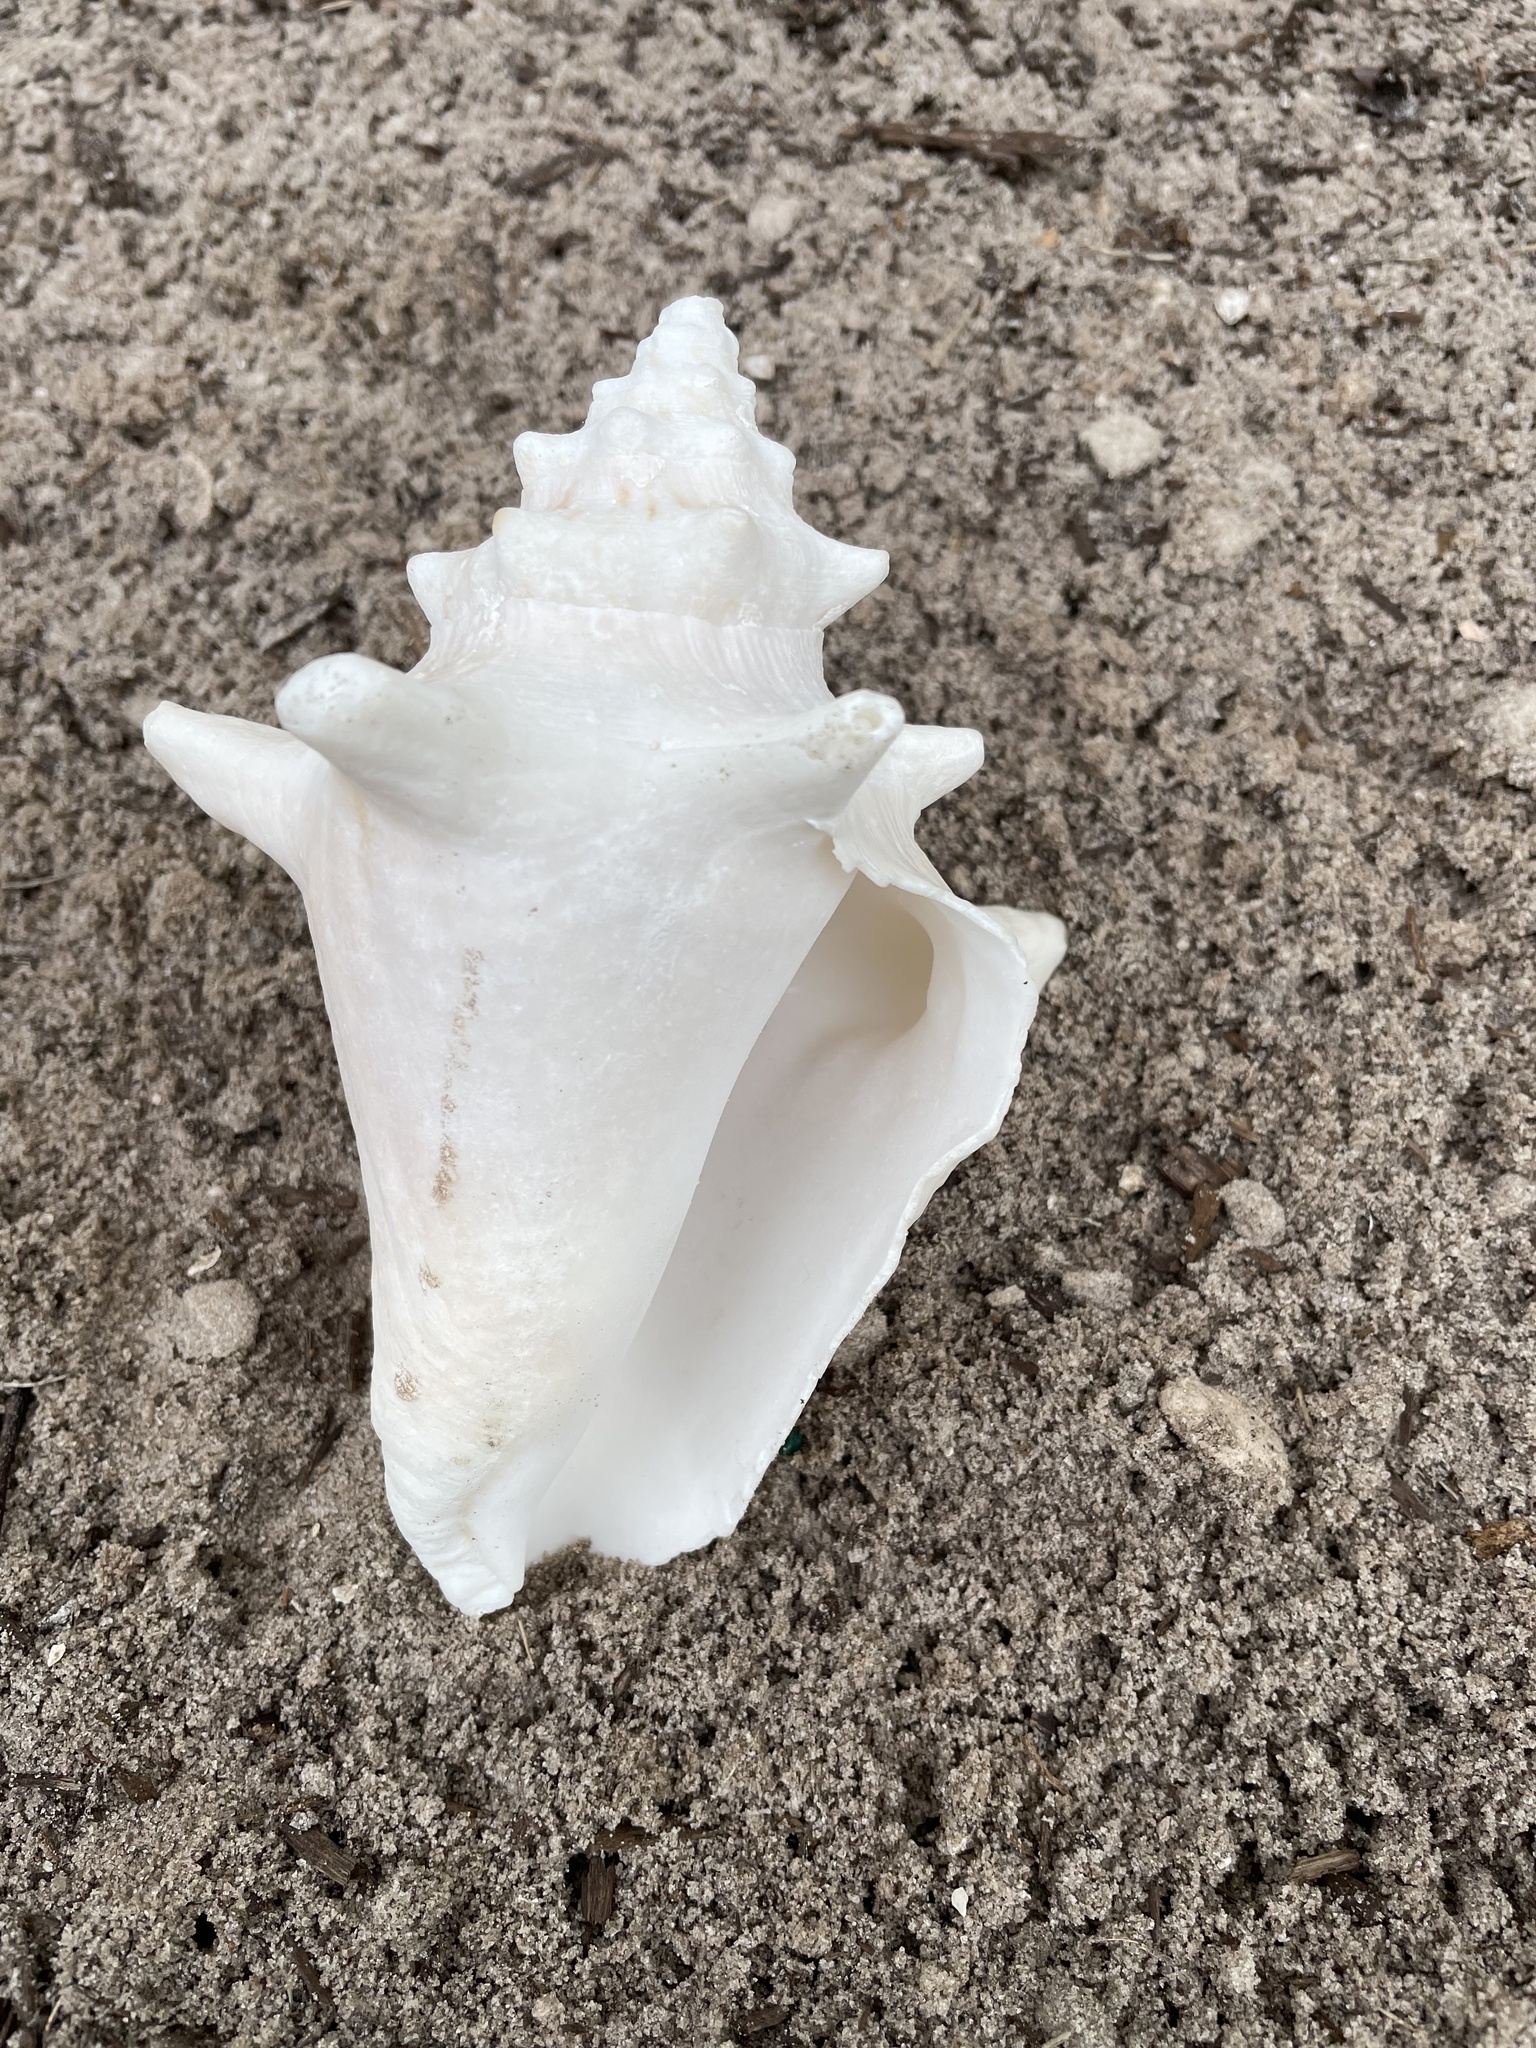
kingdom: Animalia
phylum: Mollusca
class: Gastropoda
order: Littorinimorpha
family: Strombidae
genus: Aliger
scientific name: Aliger gigas
